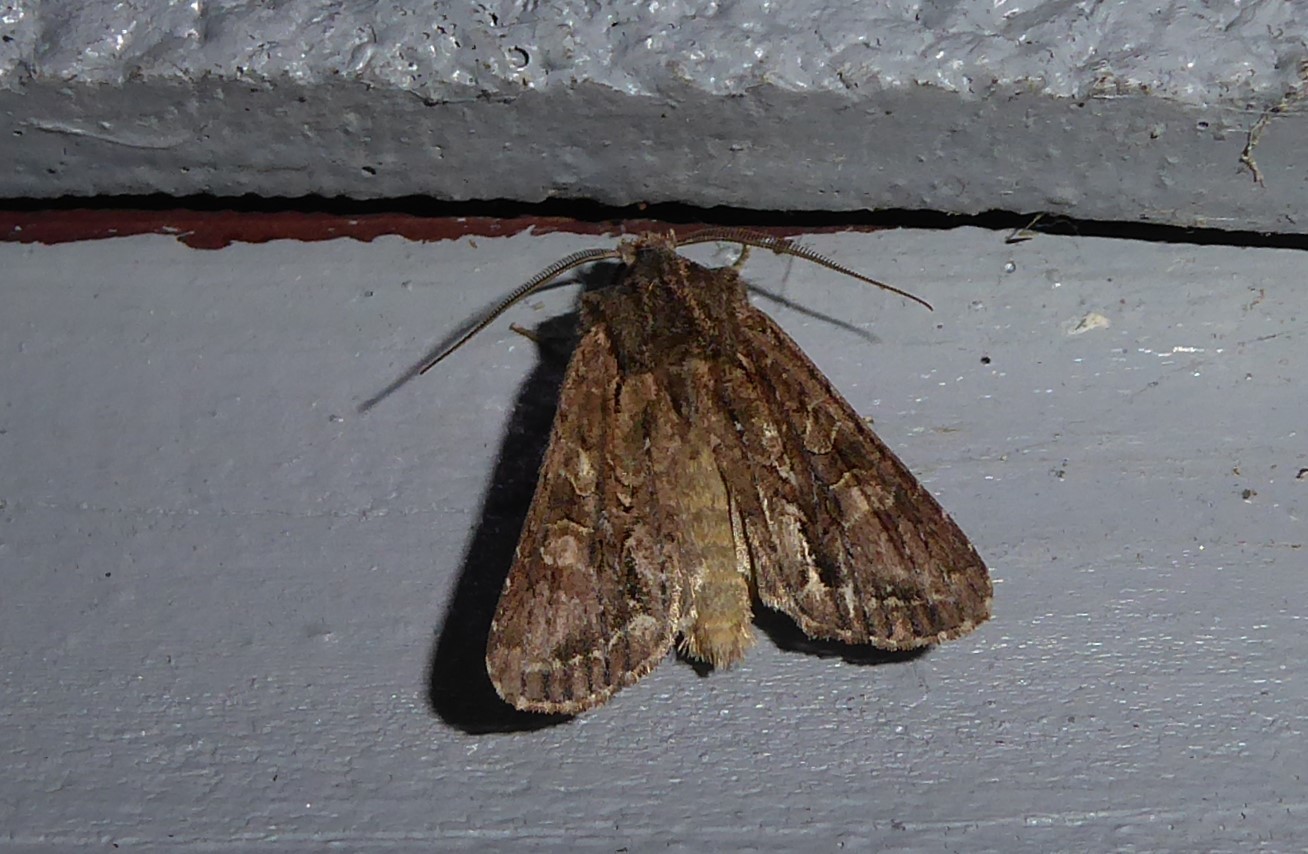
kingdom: Animalia
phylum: Arthropoda
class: Insecta
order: Lepidoptera
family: Noctuidae
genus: Ichneutica
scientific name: Ichneutica
